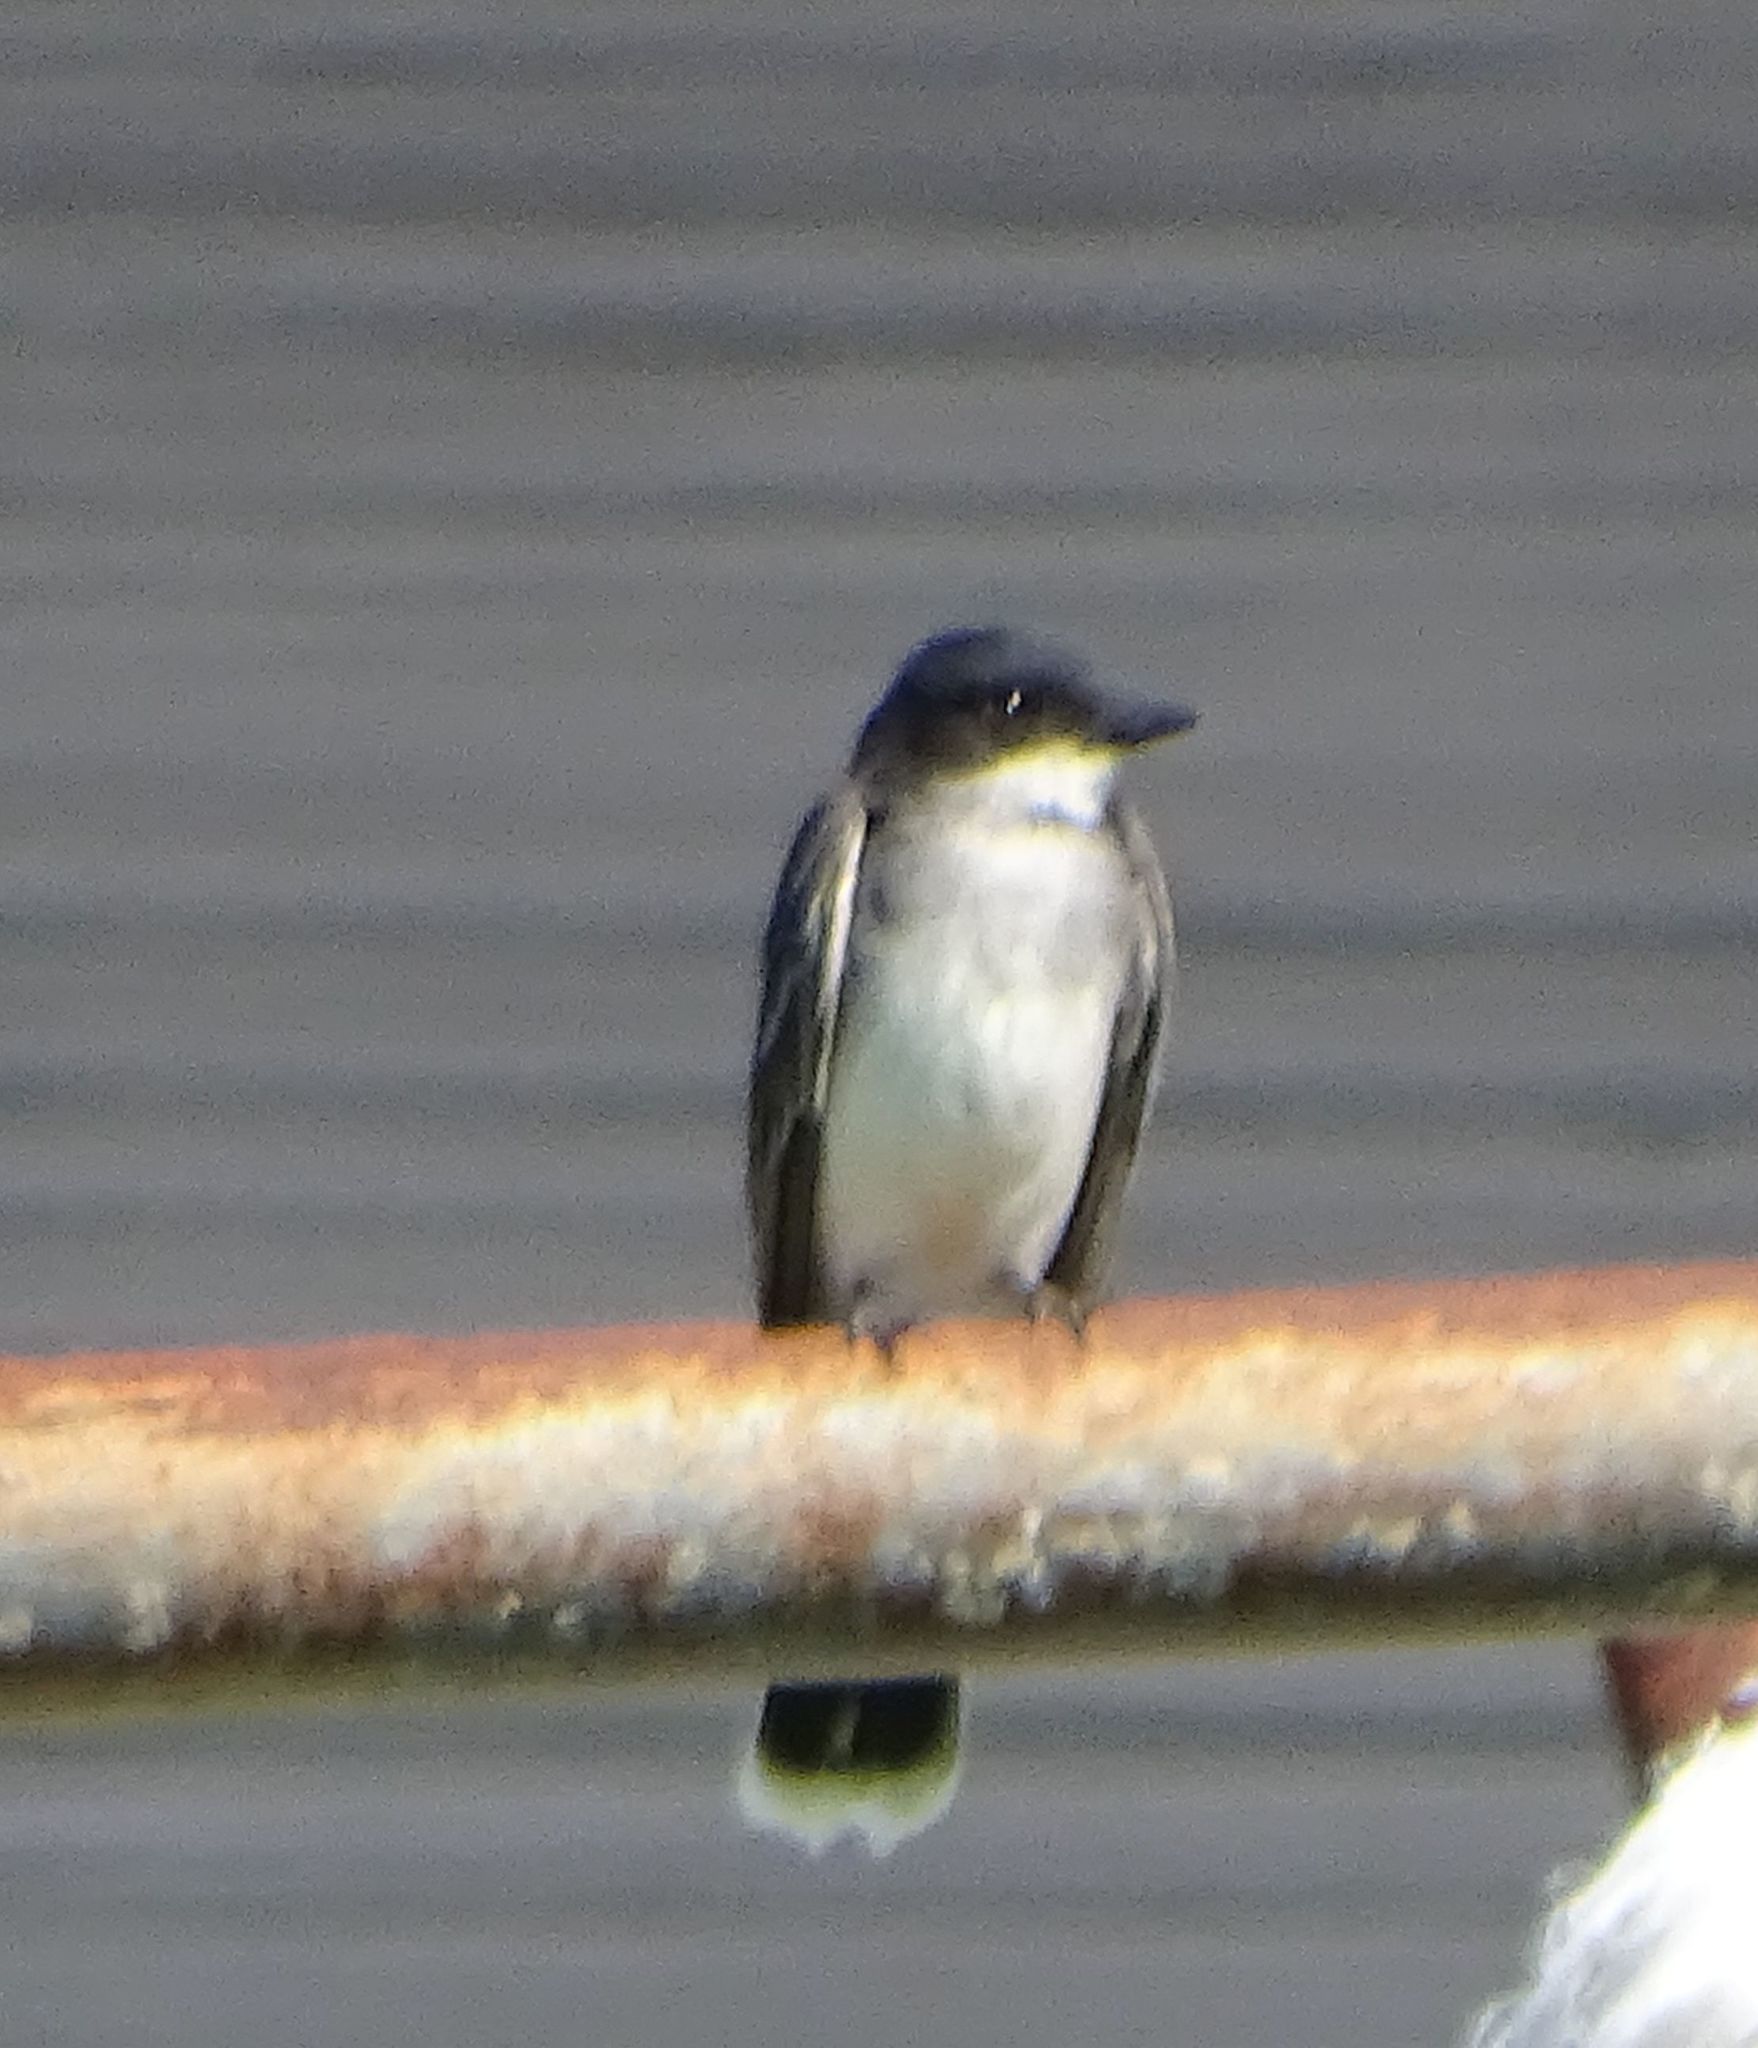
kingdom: Animalia
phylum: Chordata
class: Aves
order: Passeriformes
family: Tyrannidae
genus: Tyrannus
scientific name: Tyrannus tyrannus
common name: Eastern kingbird
